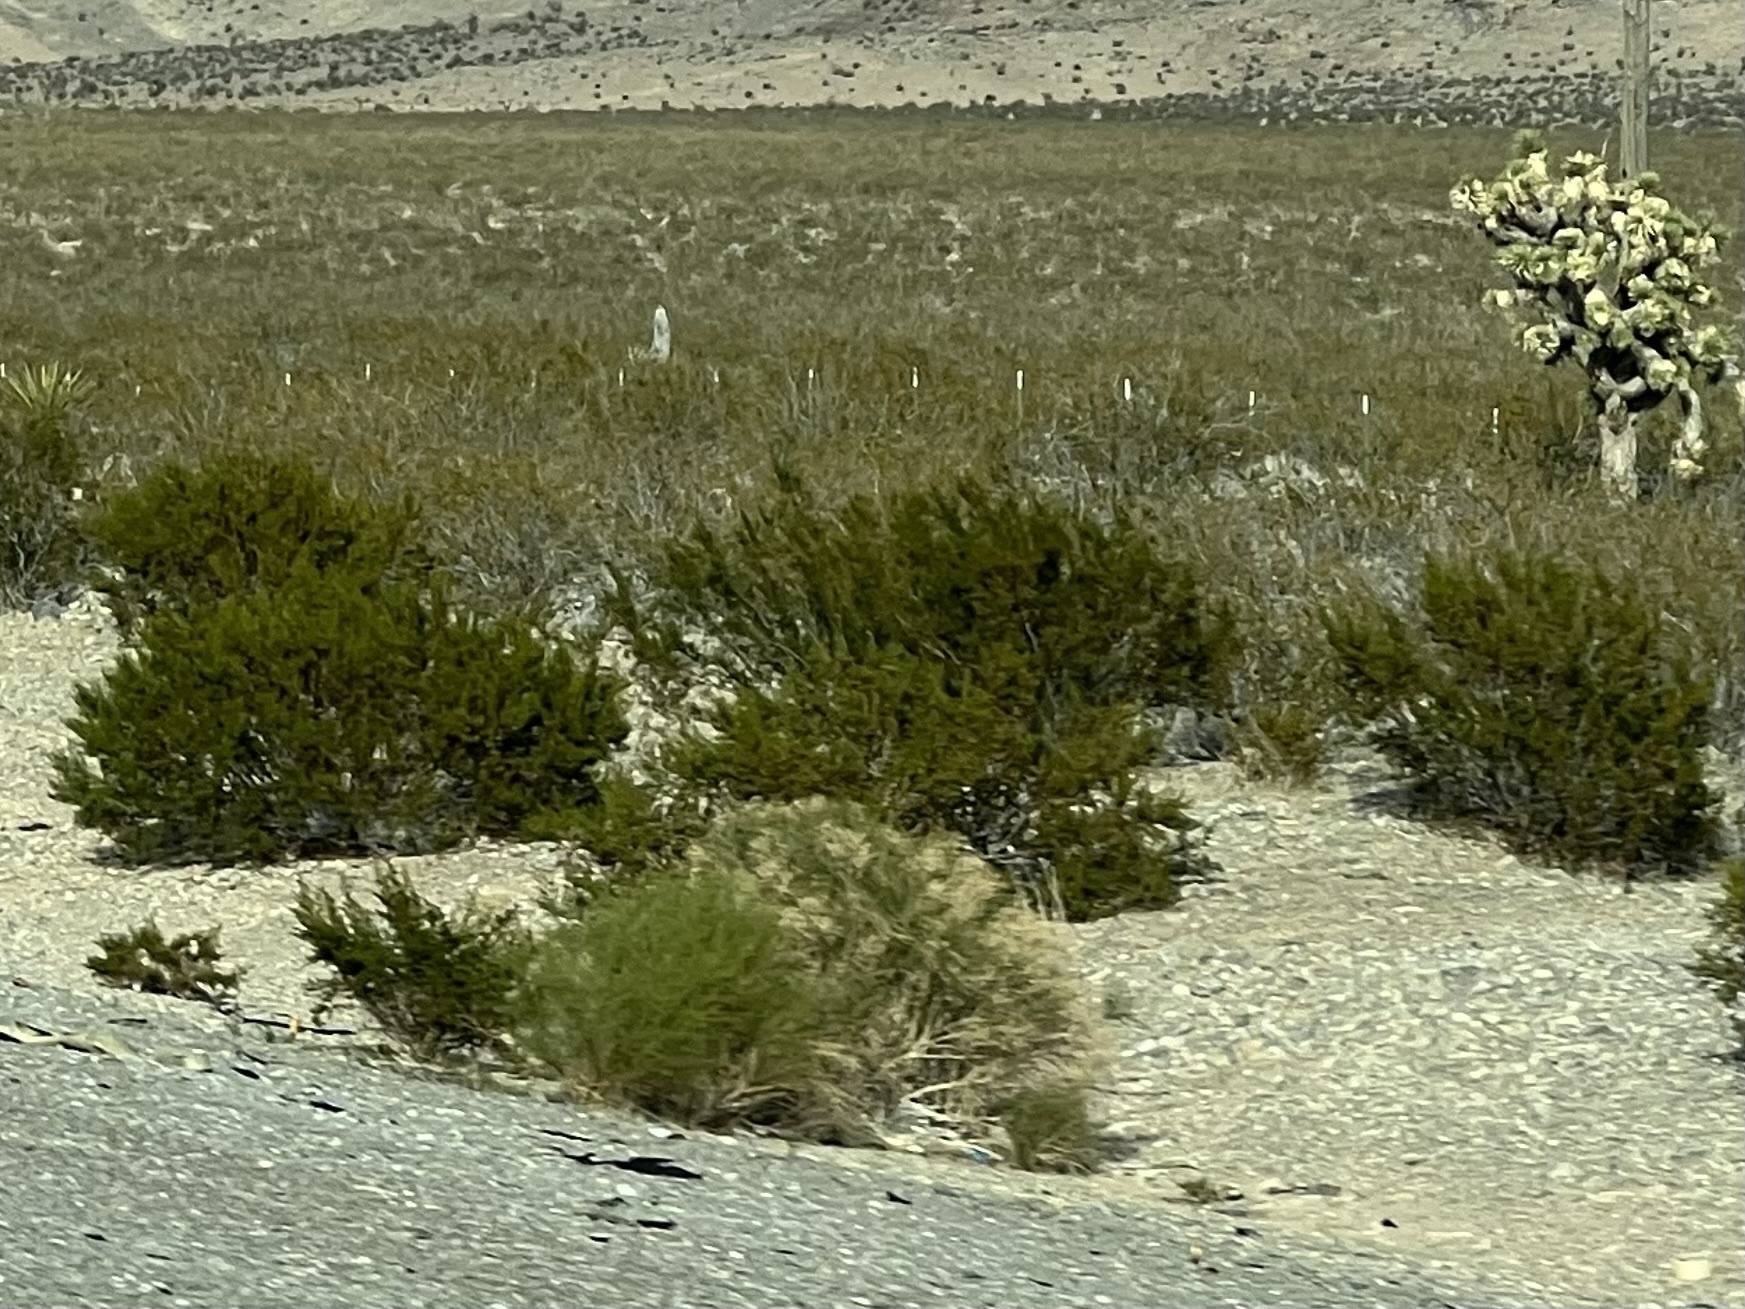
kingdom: Plantae
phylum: Tracheophyta
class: Magnoliopsida
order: Zygophyllales
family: Zygophyllaceae
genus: Larrea
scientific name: Larrea tridentata
